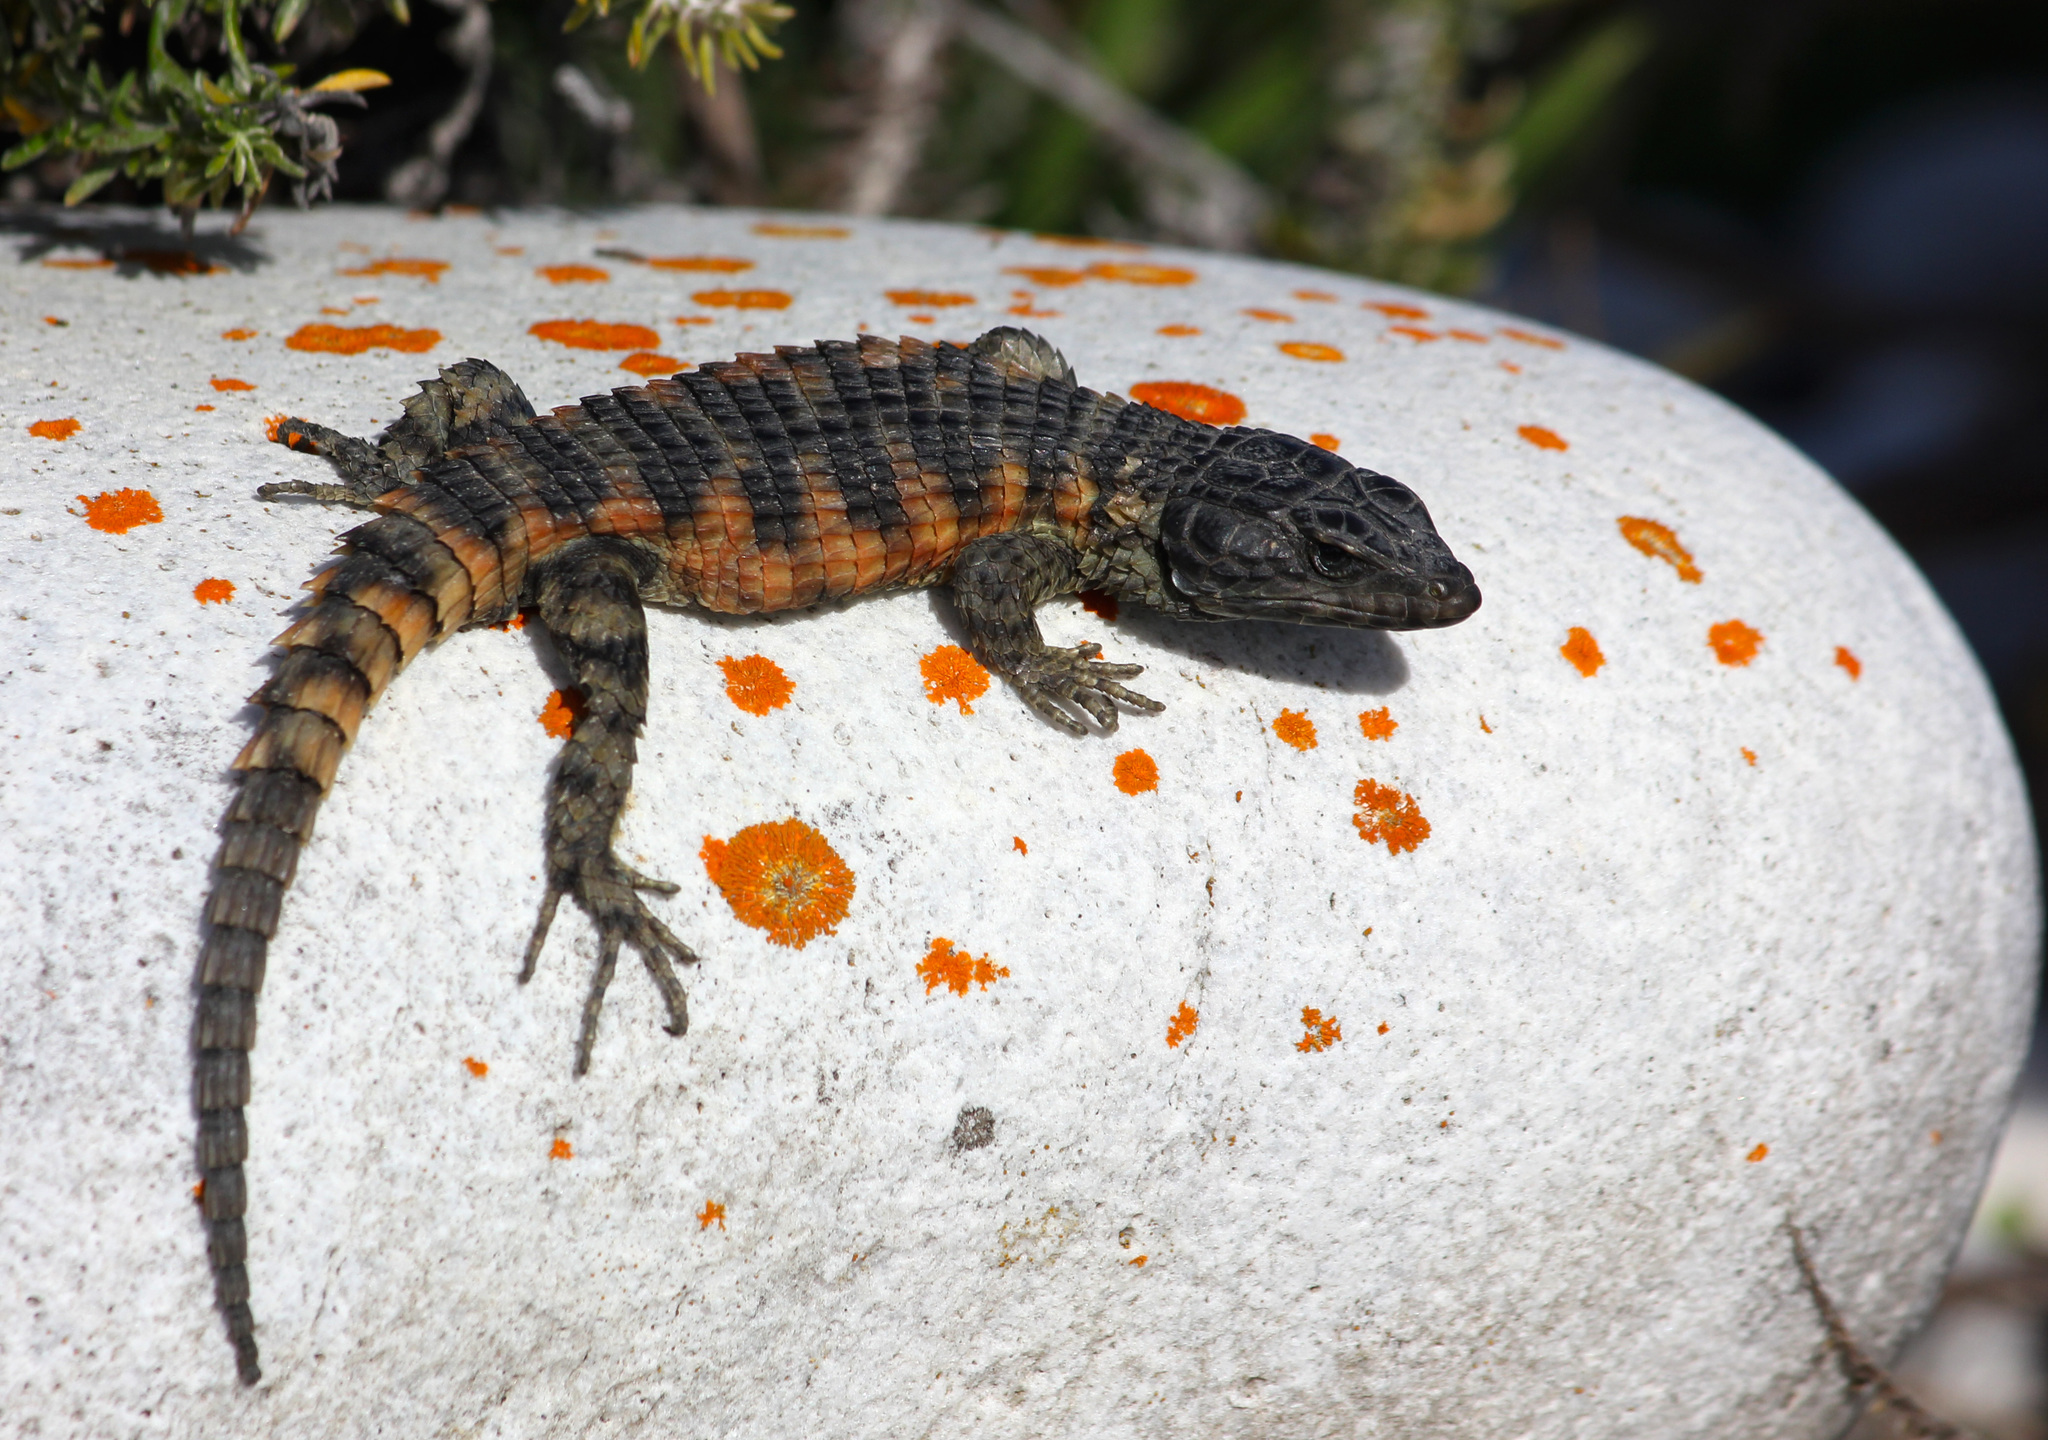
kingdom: Animalia
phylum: Chordata
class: Squamata
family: Cordylidae
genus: Cordylus
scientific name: Cordylus cordylus
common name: Cape girdled lizard
